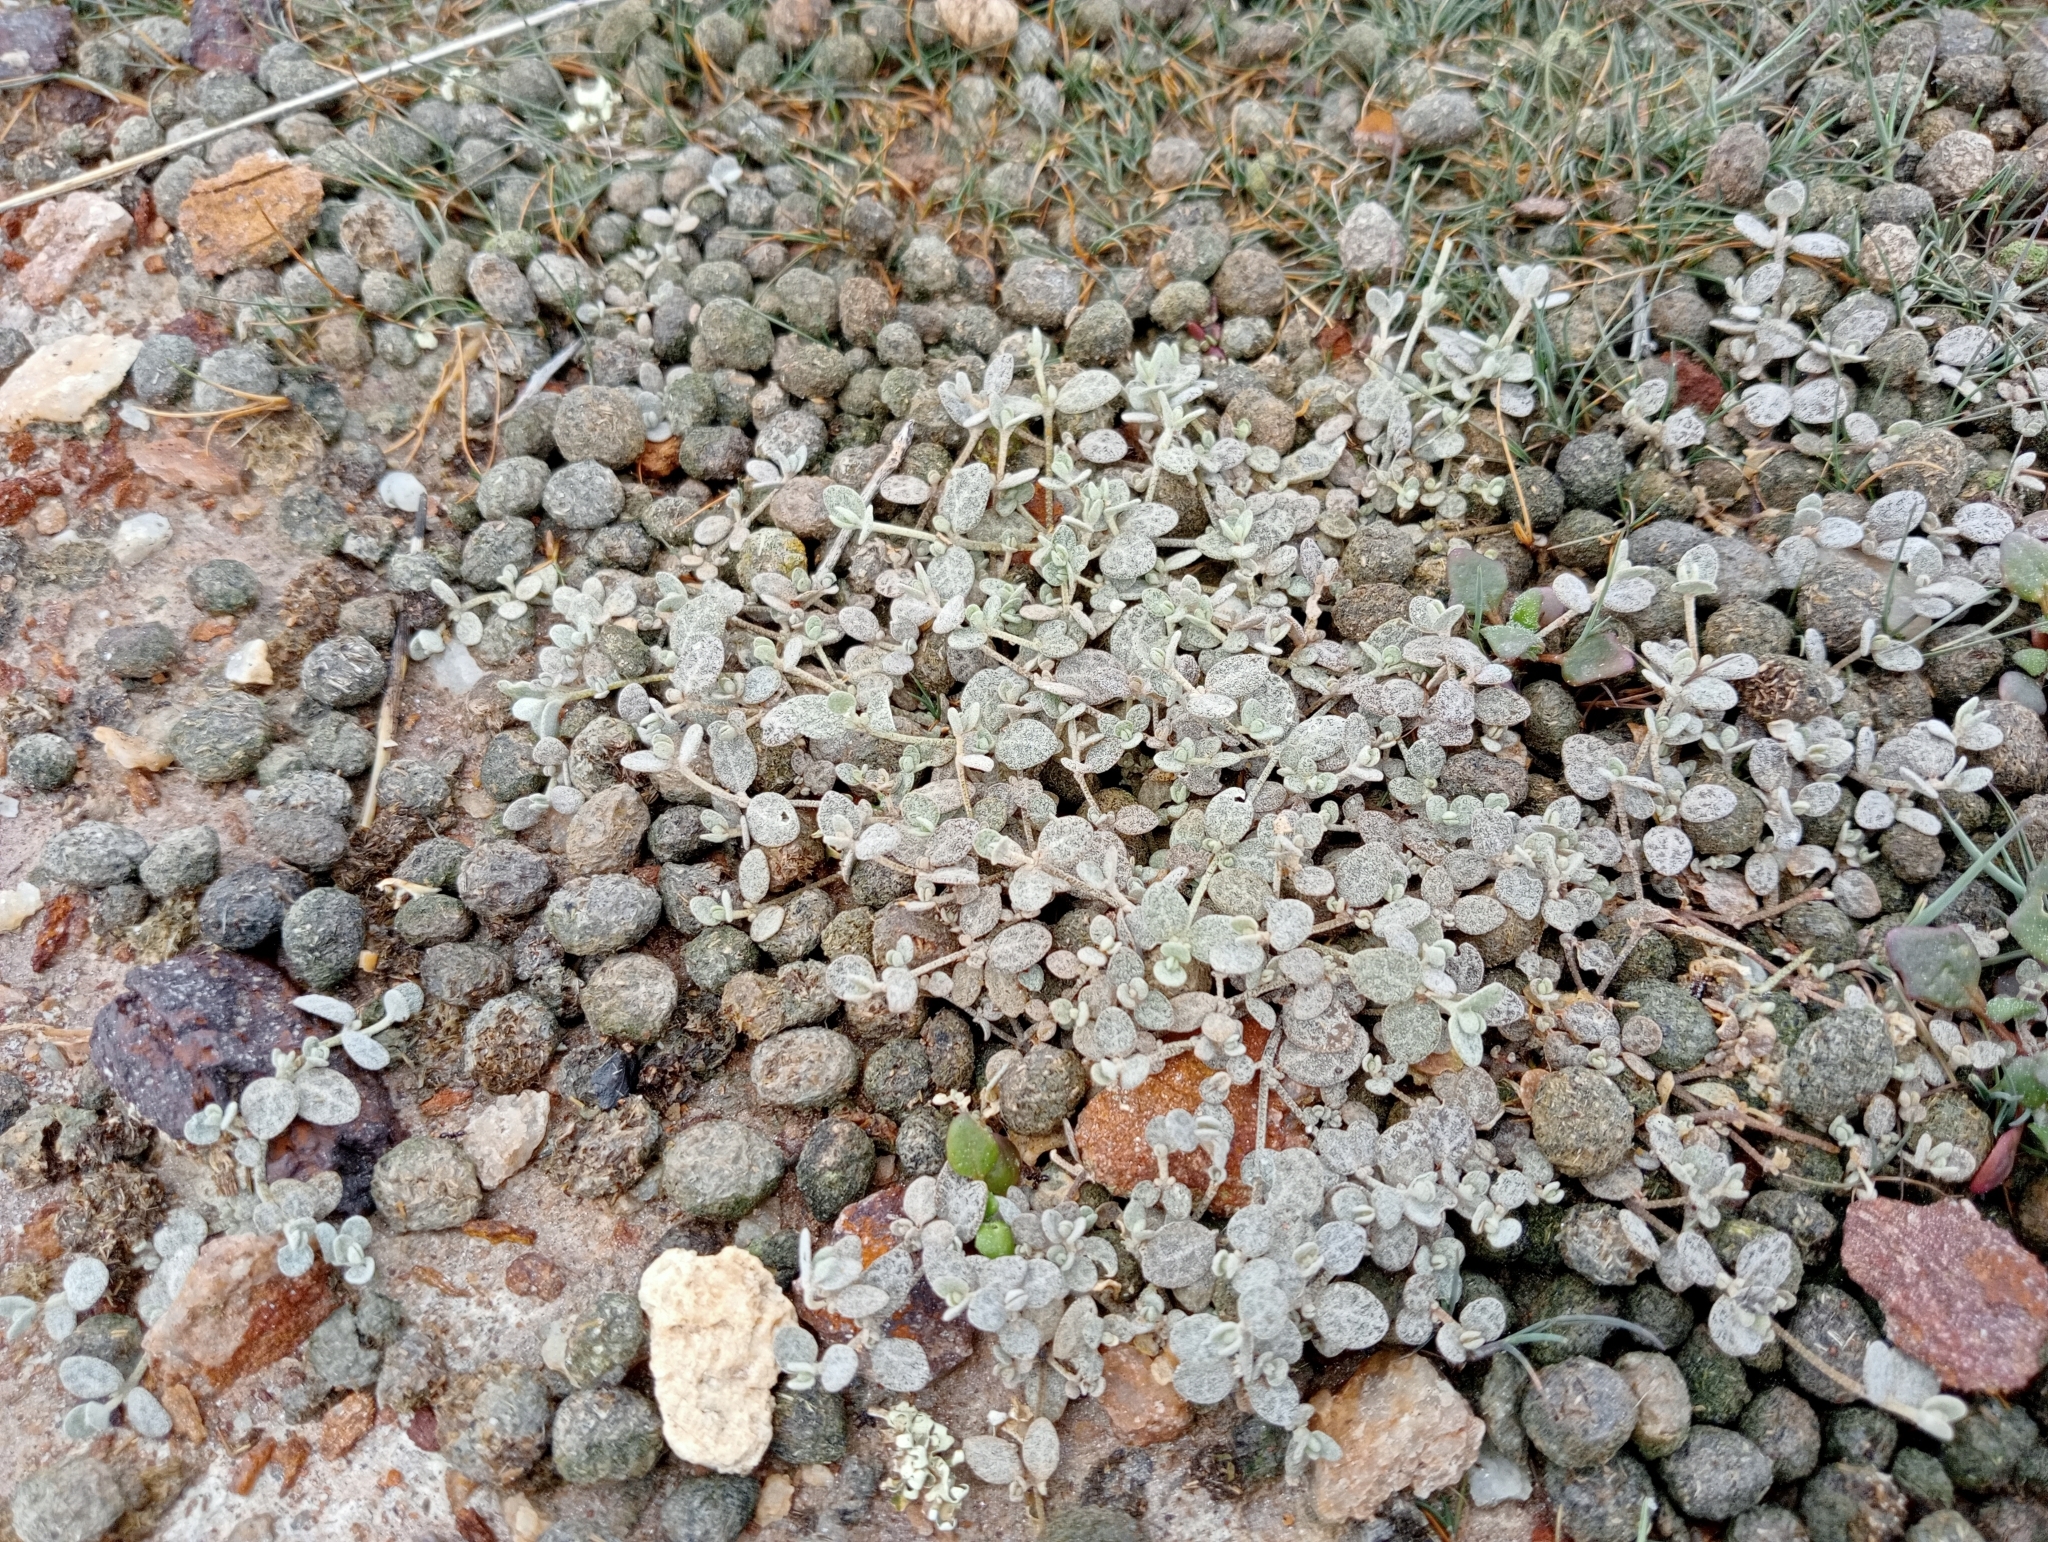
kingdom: Plantae
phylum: Tracheophyta
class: Magnoliopsida
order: Caryophyllales
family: Amaranthaceae
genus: Atriplex
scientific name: Atriplex buchananii
